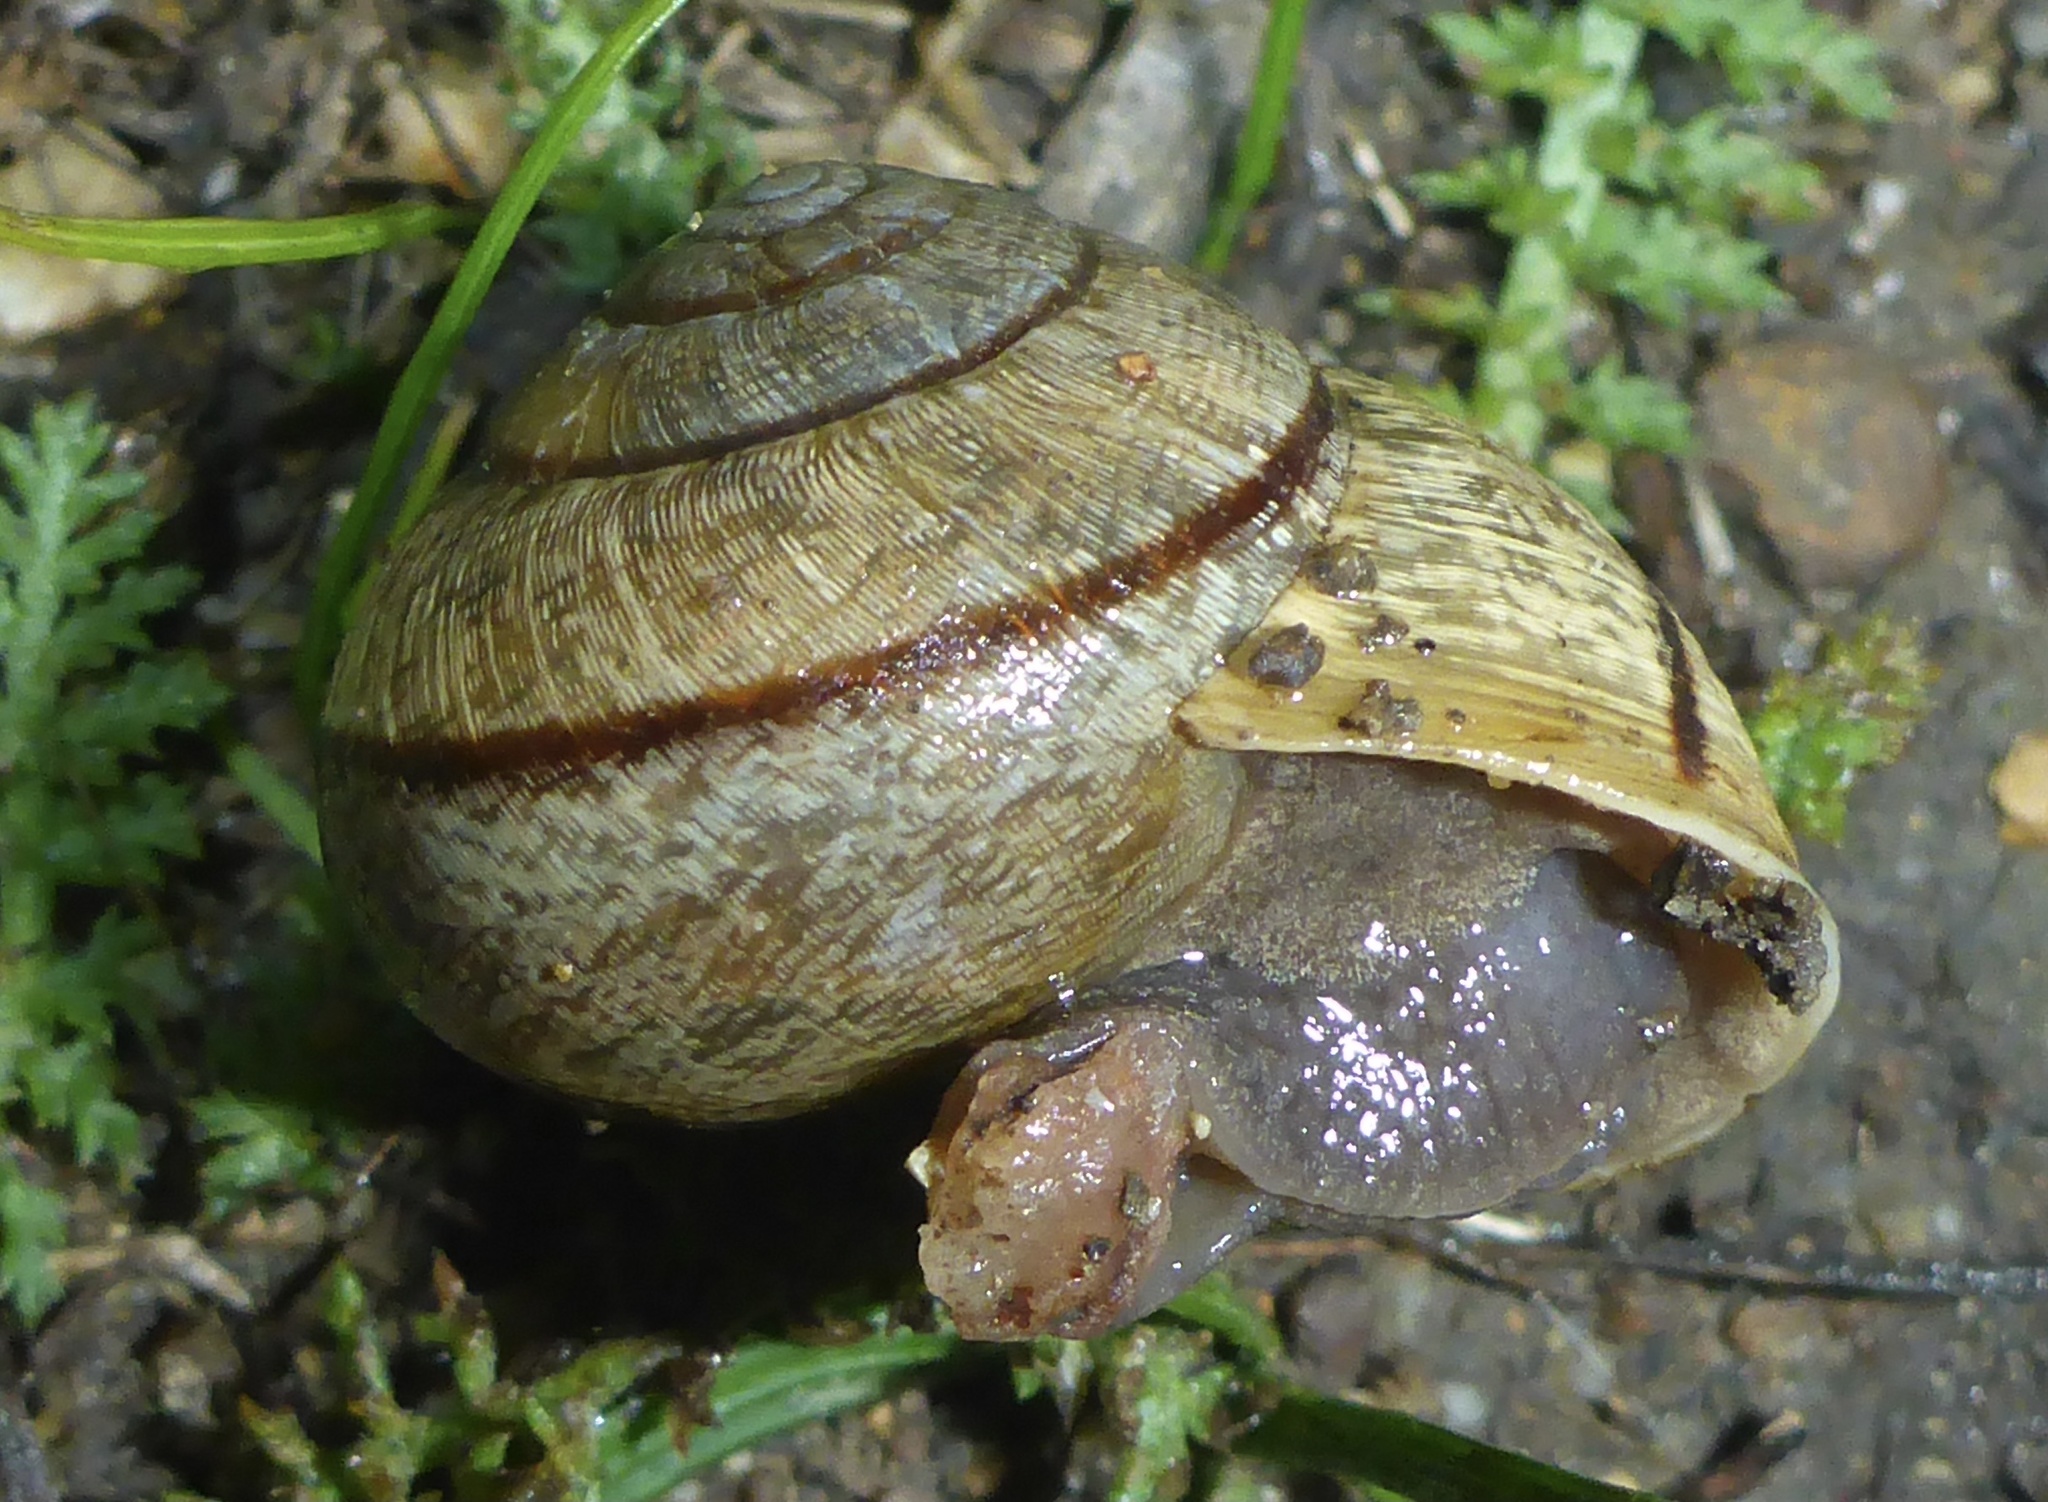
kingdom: Animalia
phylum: Mollusca
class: Gastropoda
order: Stylommatophora
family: Xanthonychidae
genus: Helminthoglypta
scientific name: Helminthoglypta nickliniana
